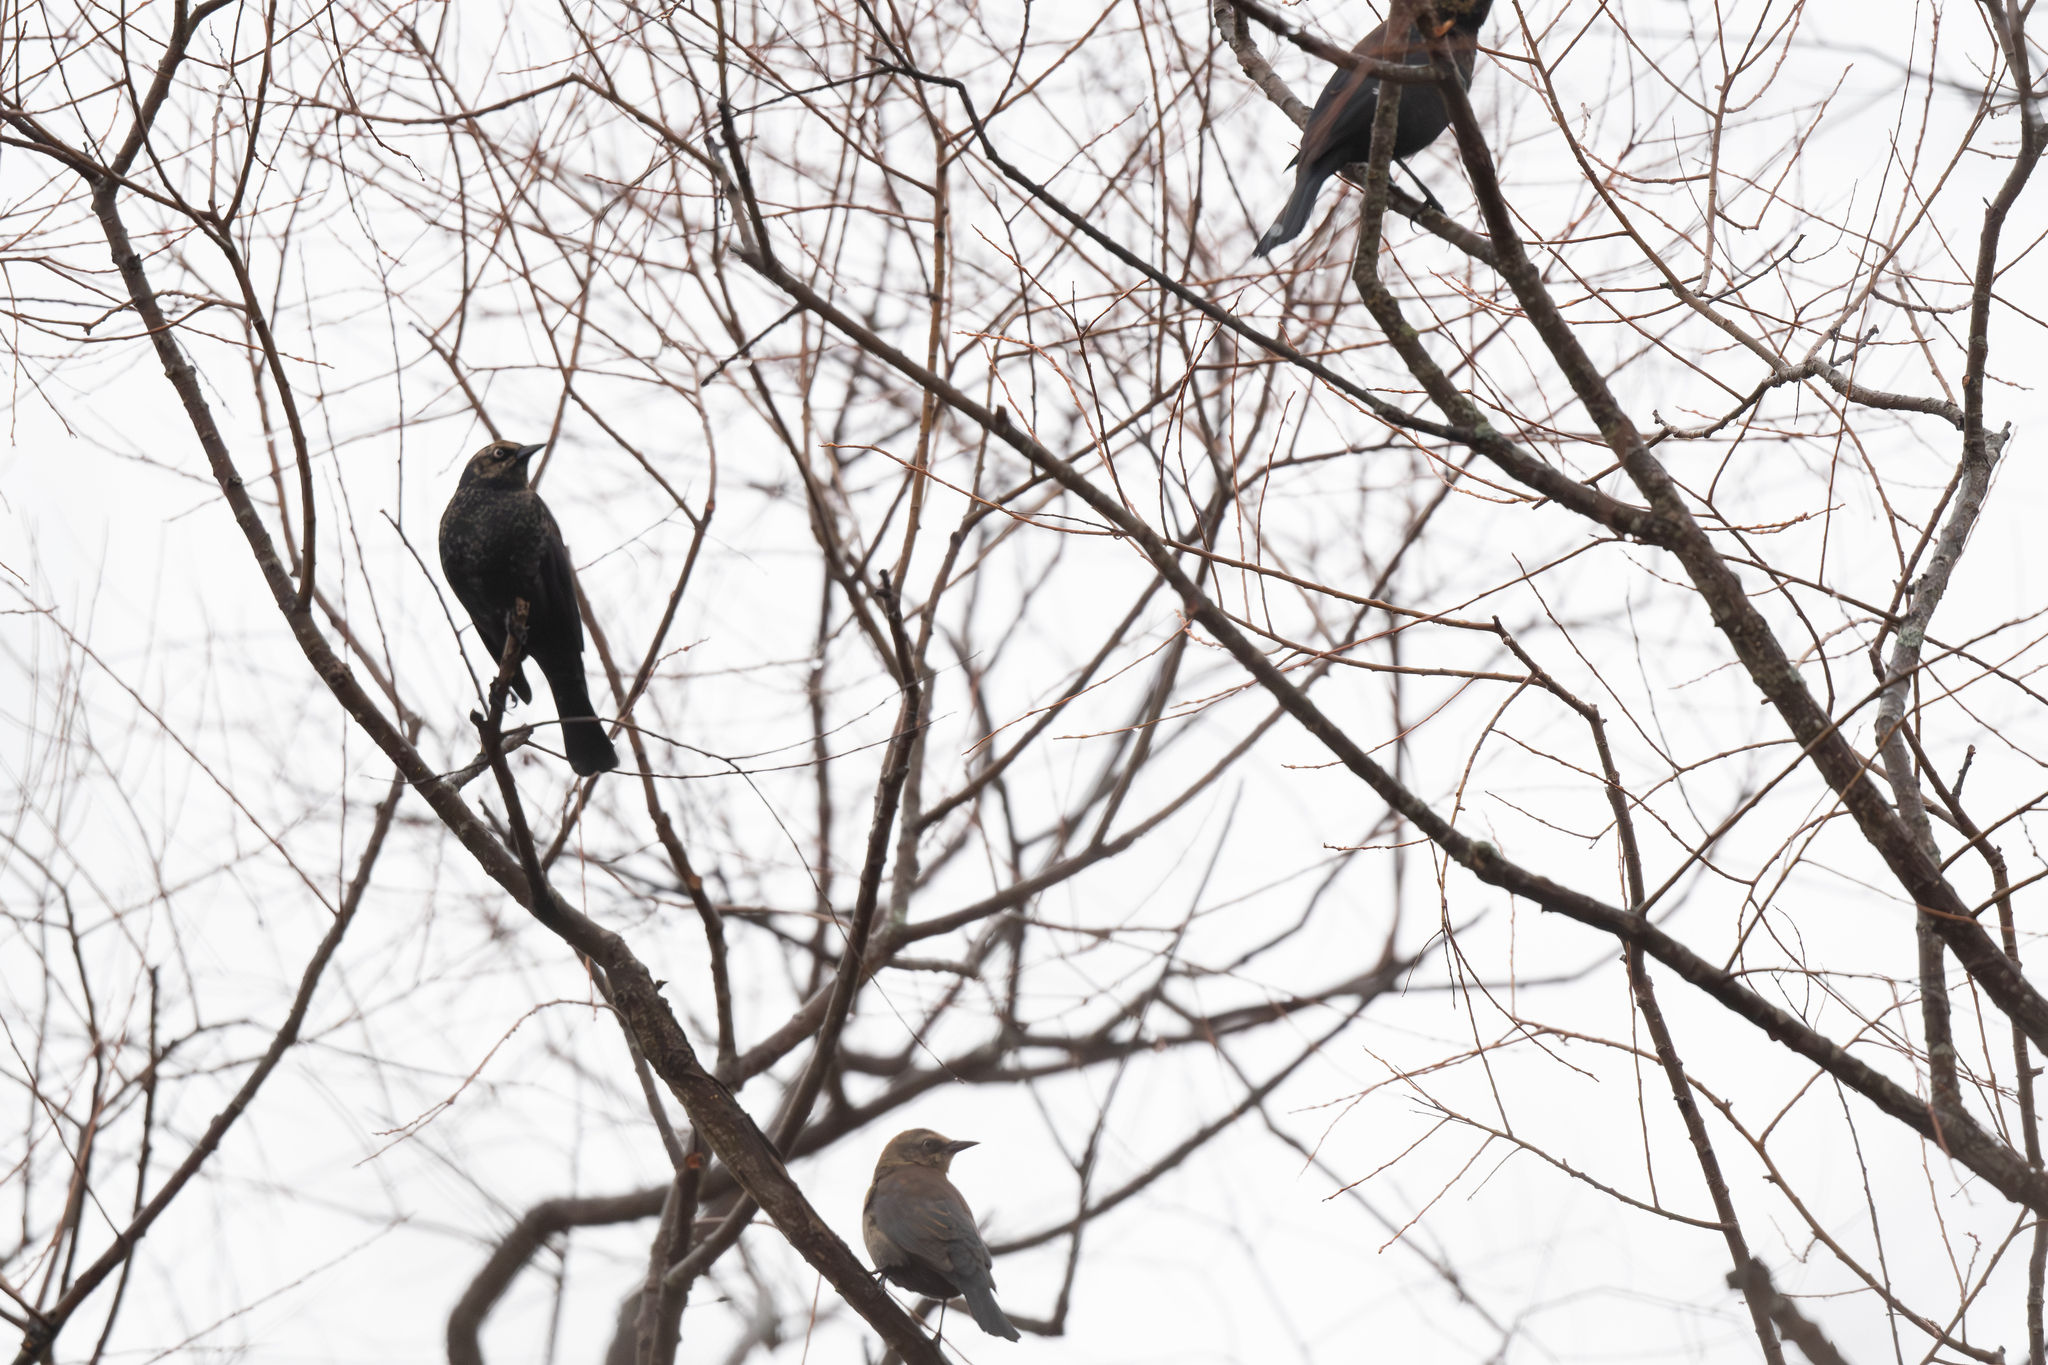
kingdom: Animalia
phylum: Chordata
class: Aves
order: Passeriformes
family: Icteridae
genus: Euphagus
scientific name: Euphagus carolinus
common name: Rusty blackbird
